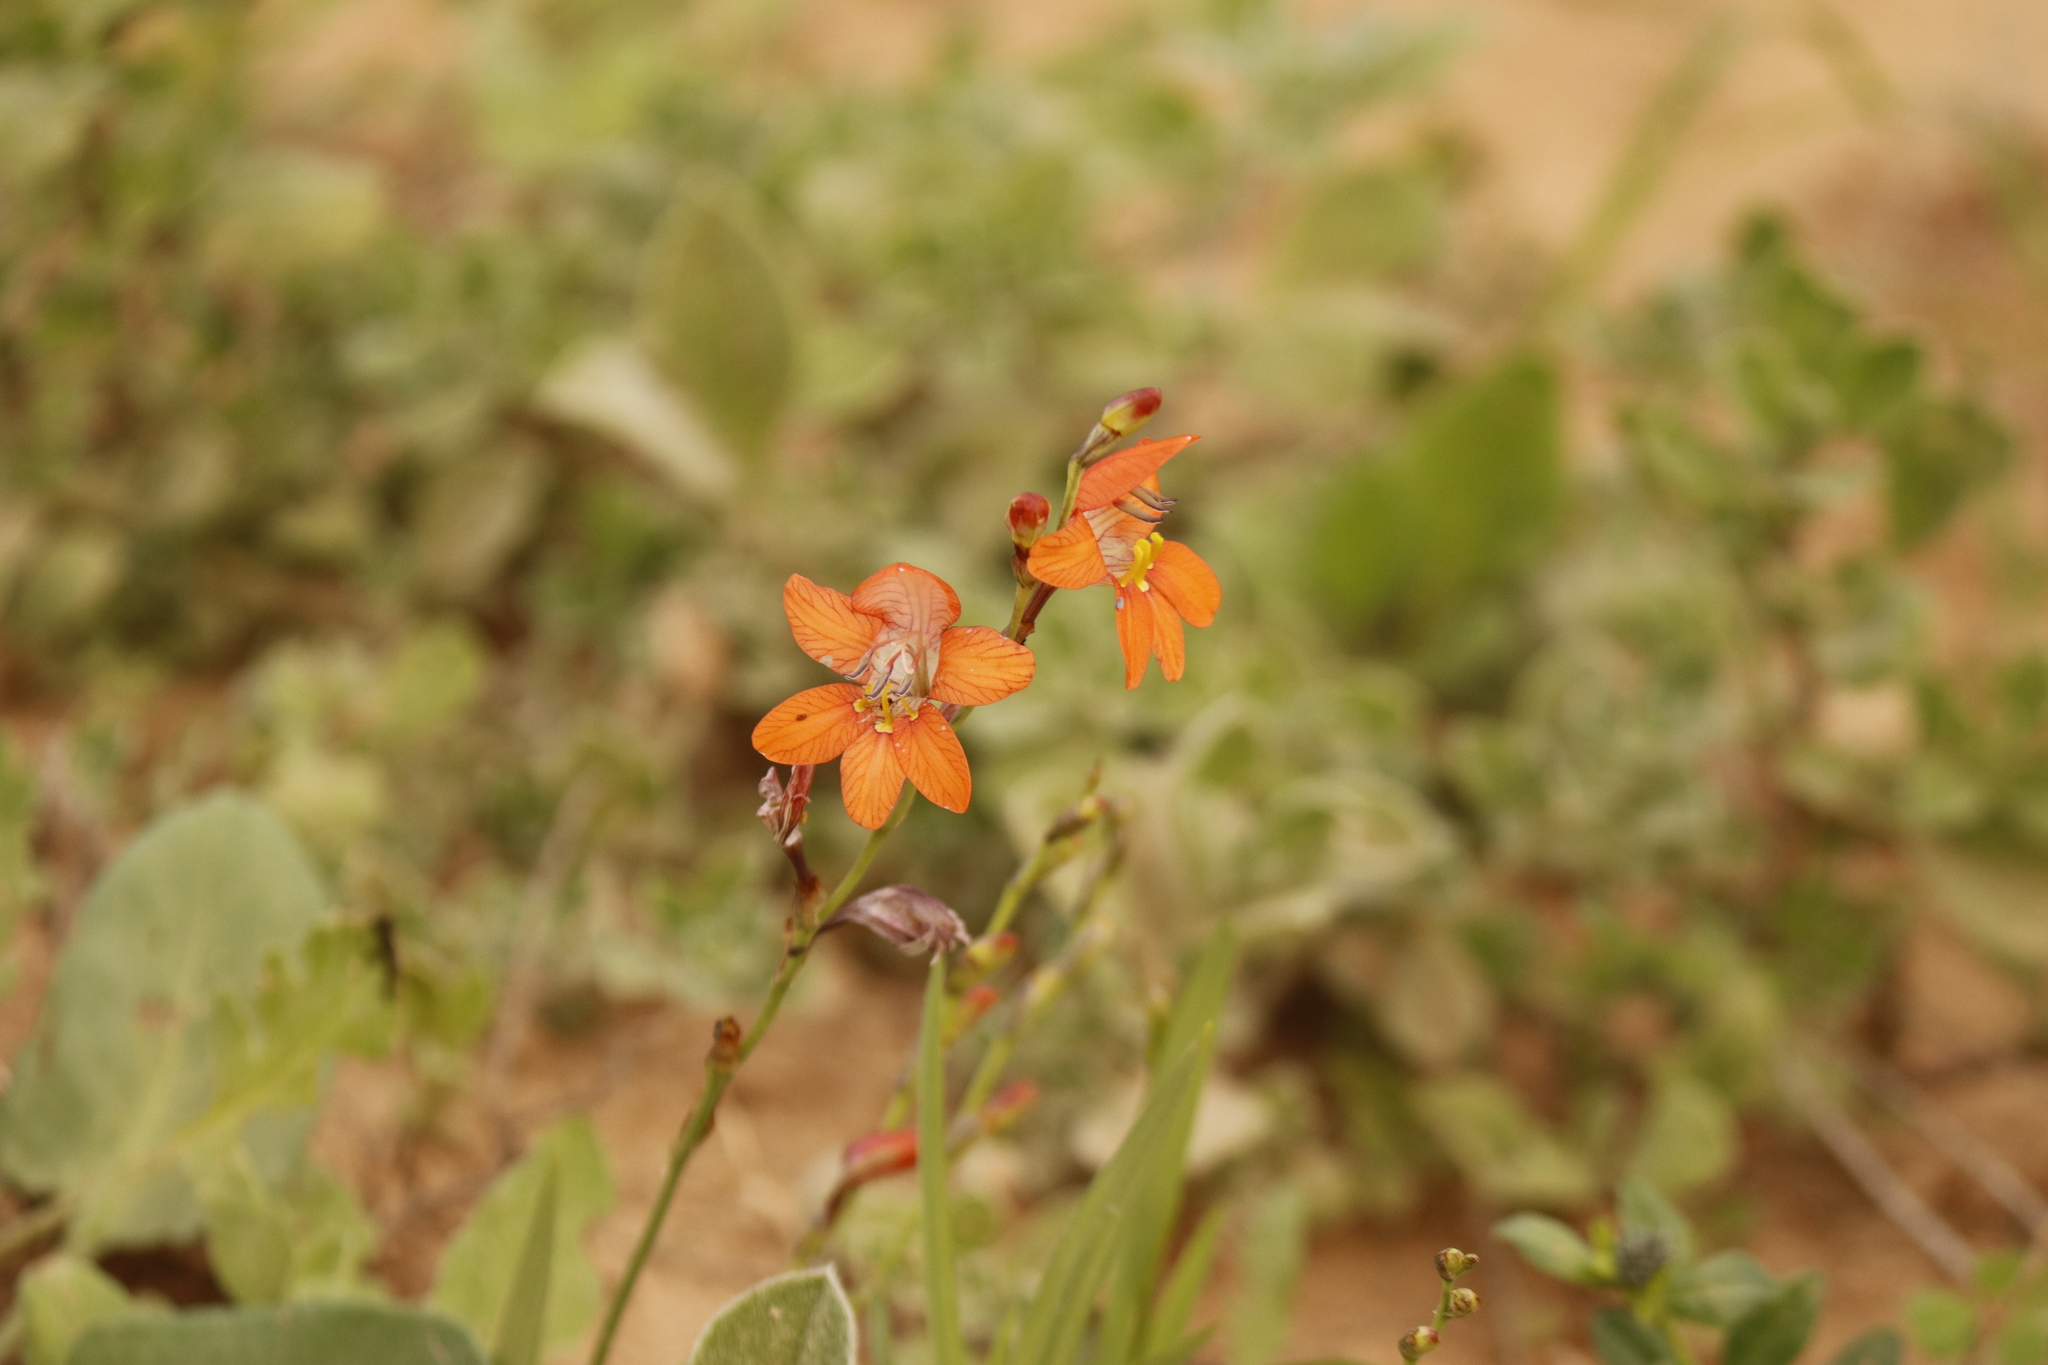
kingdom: Plantae
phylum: Tracheophyta
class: Liliopsida
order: Asparagales
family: Iridaceae
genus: Tritonia
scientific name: Tritonia laxifolia
